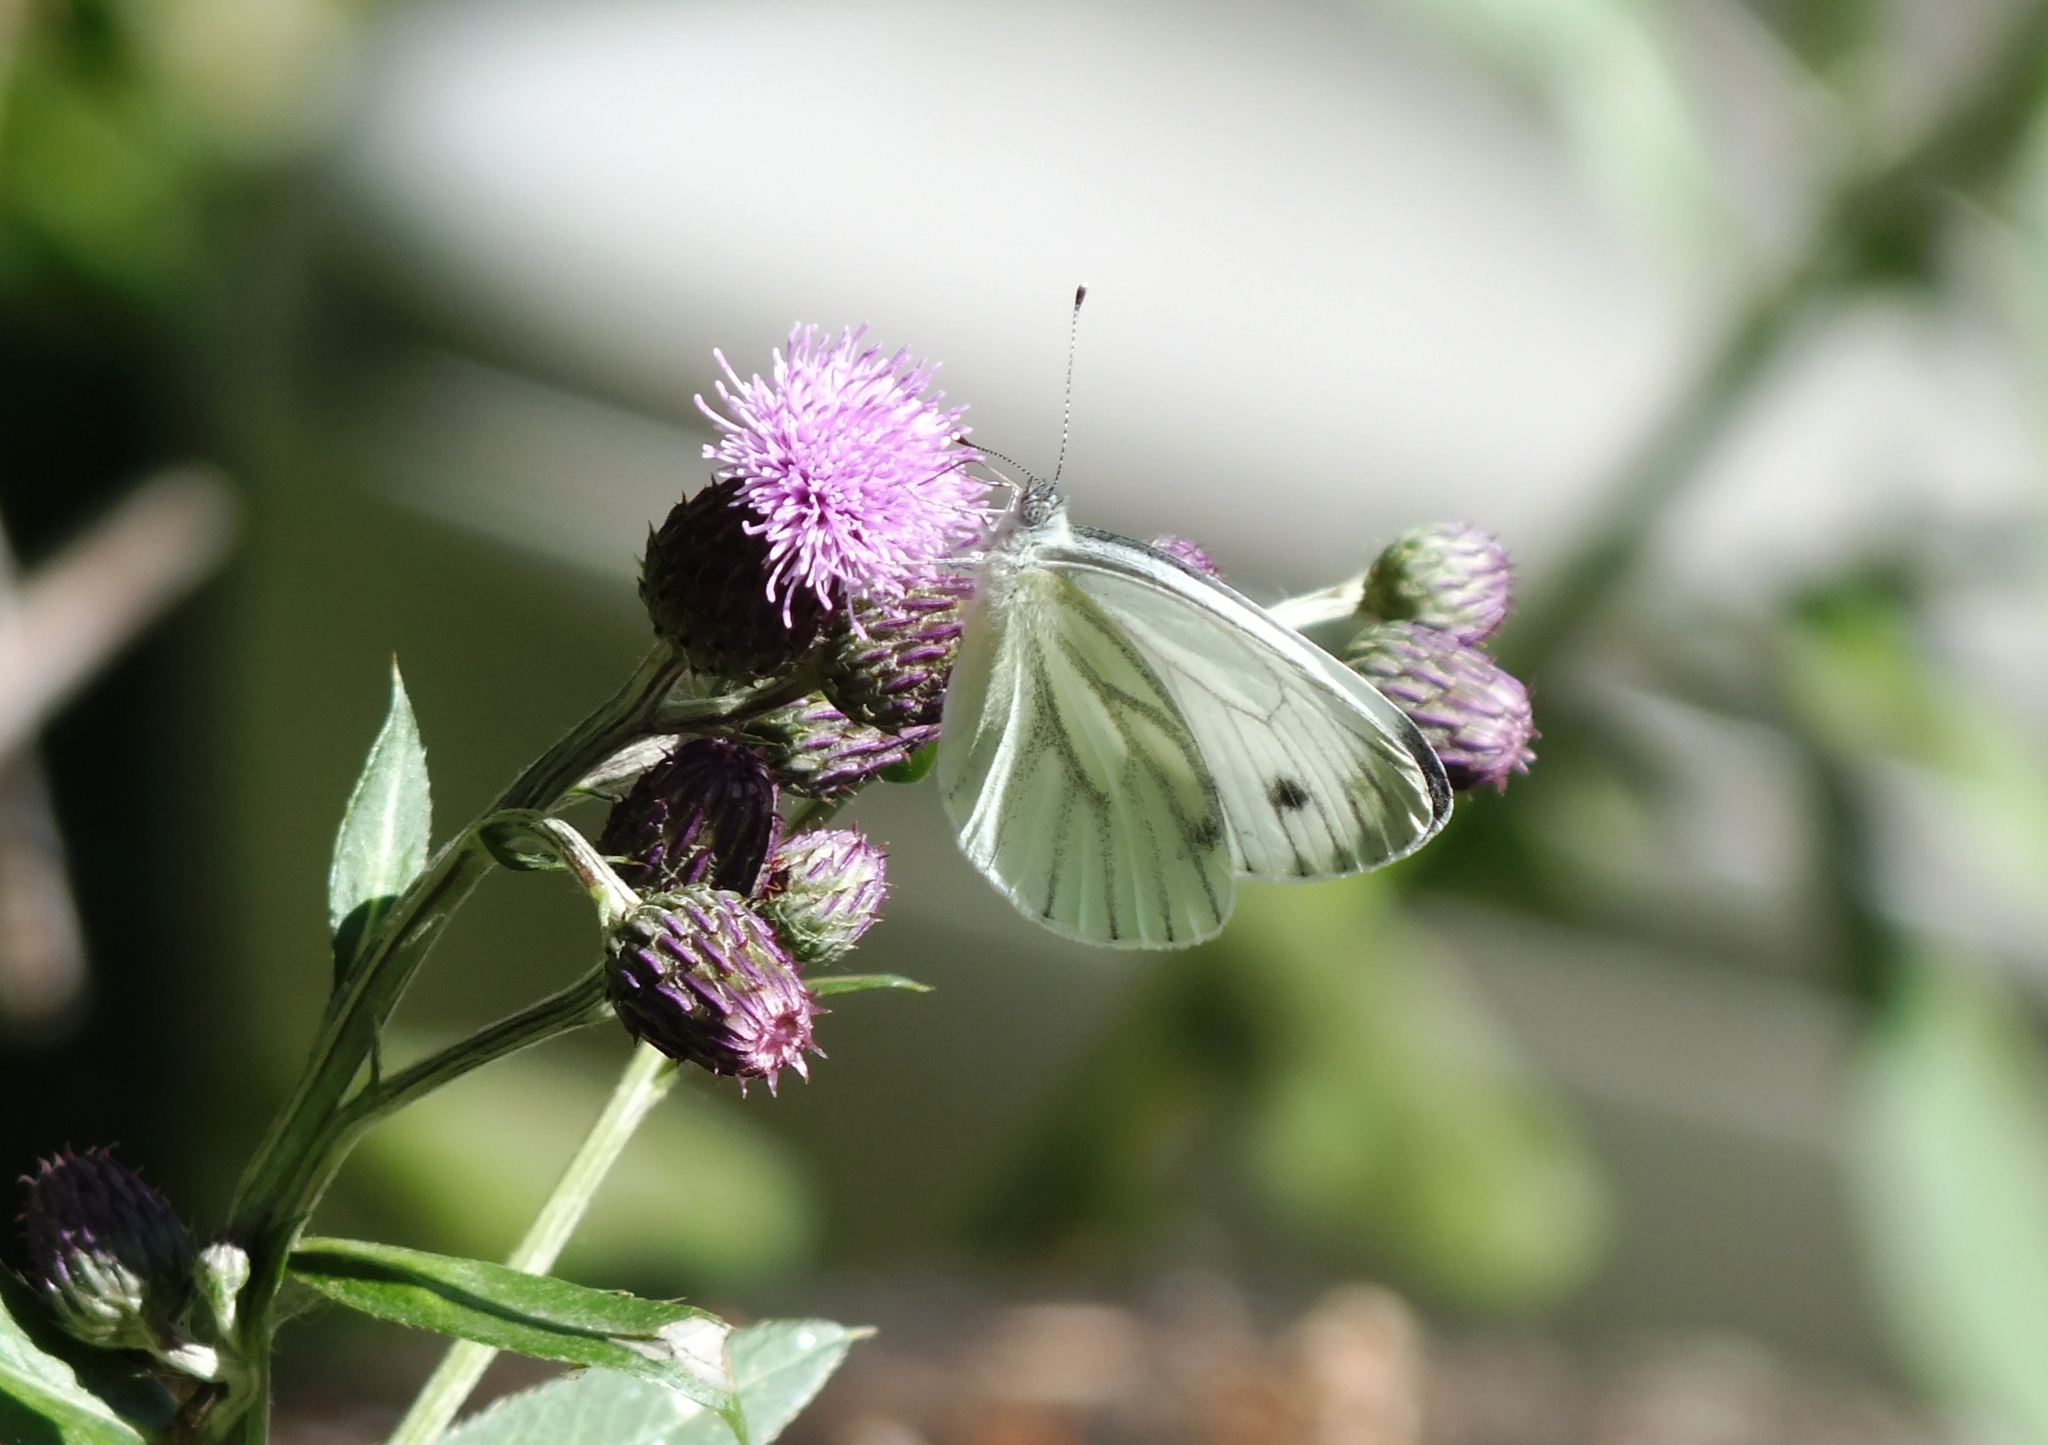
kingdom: Animalia
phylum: Arthropoda
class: Insecta
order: Lepidoptera
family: Pieridae
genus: Pieris
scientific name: Pieris napi
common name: Green-veined white
